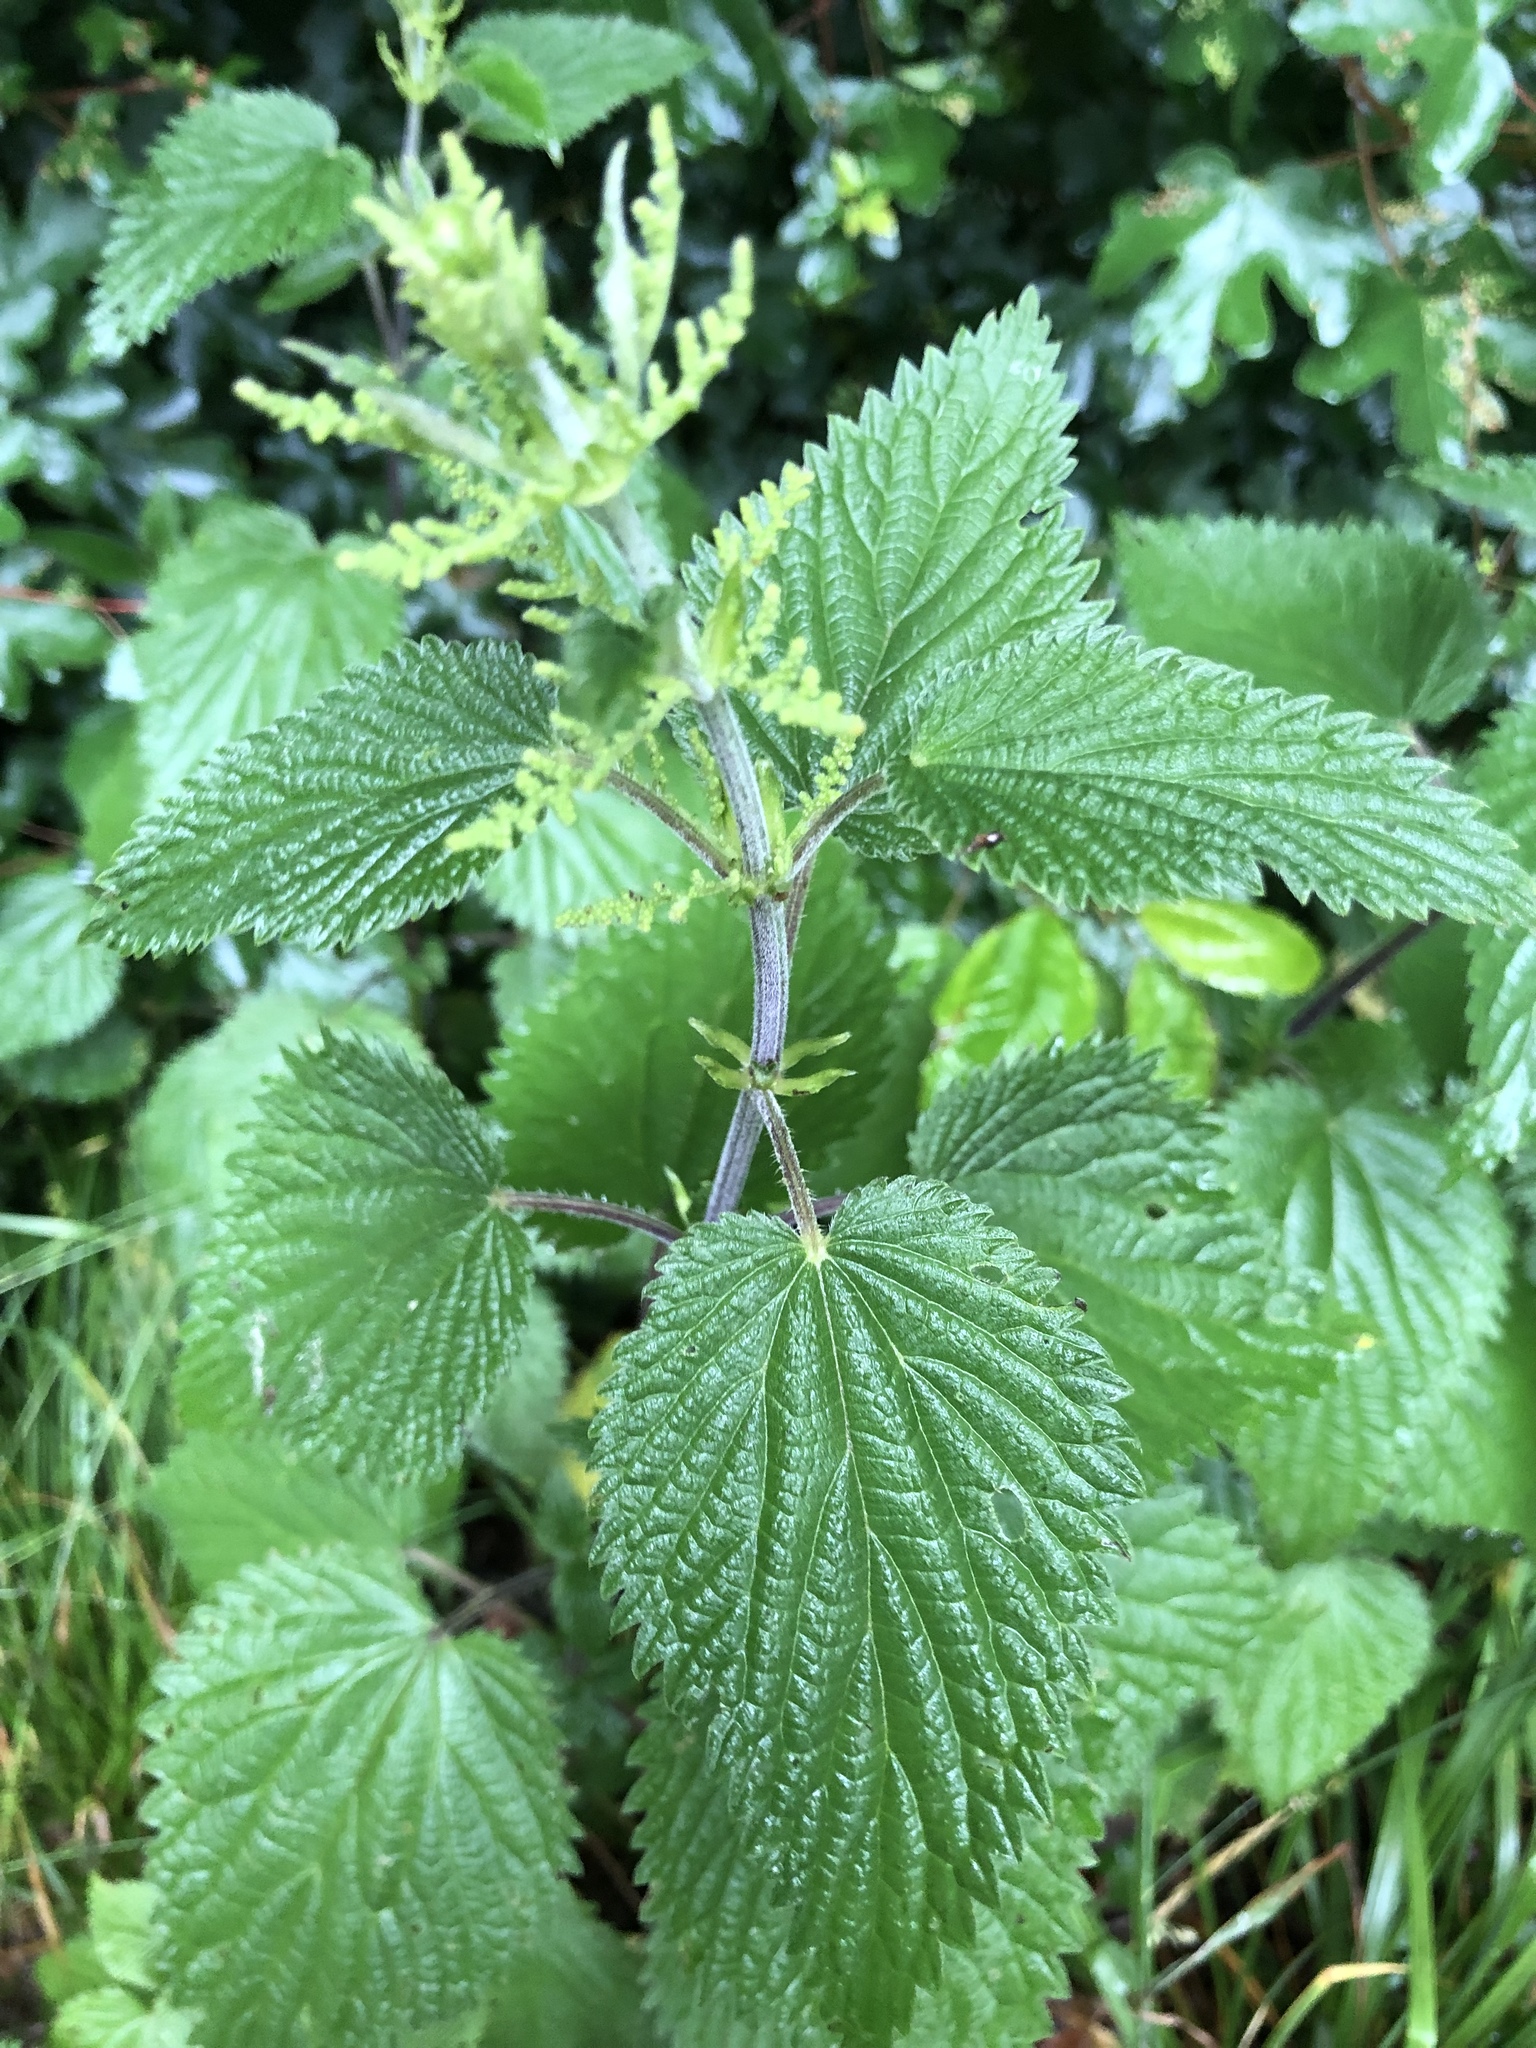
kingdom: Plantae
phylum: Tracheophyta
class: Magnoliopsida
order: Rosales
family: Urticaceae
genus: Urtica
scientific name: Urtica dioica
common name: Common nettle
